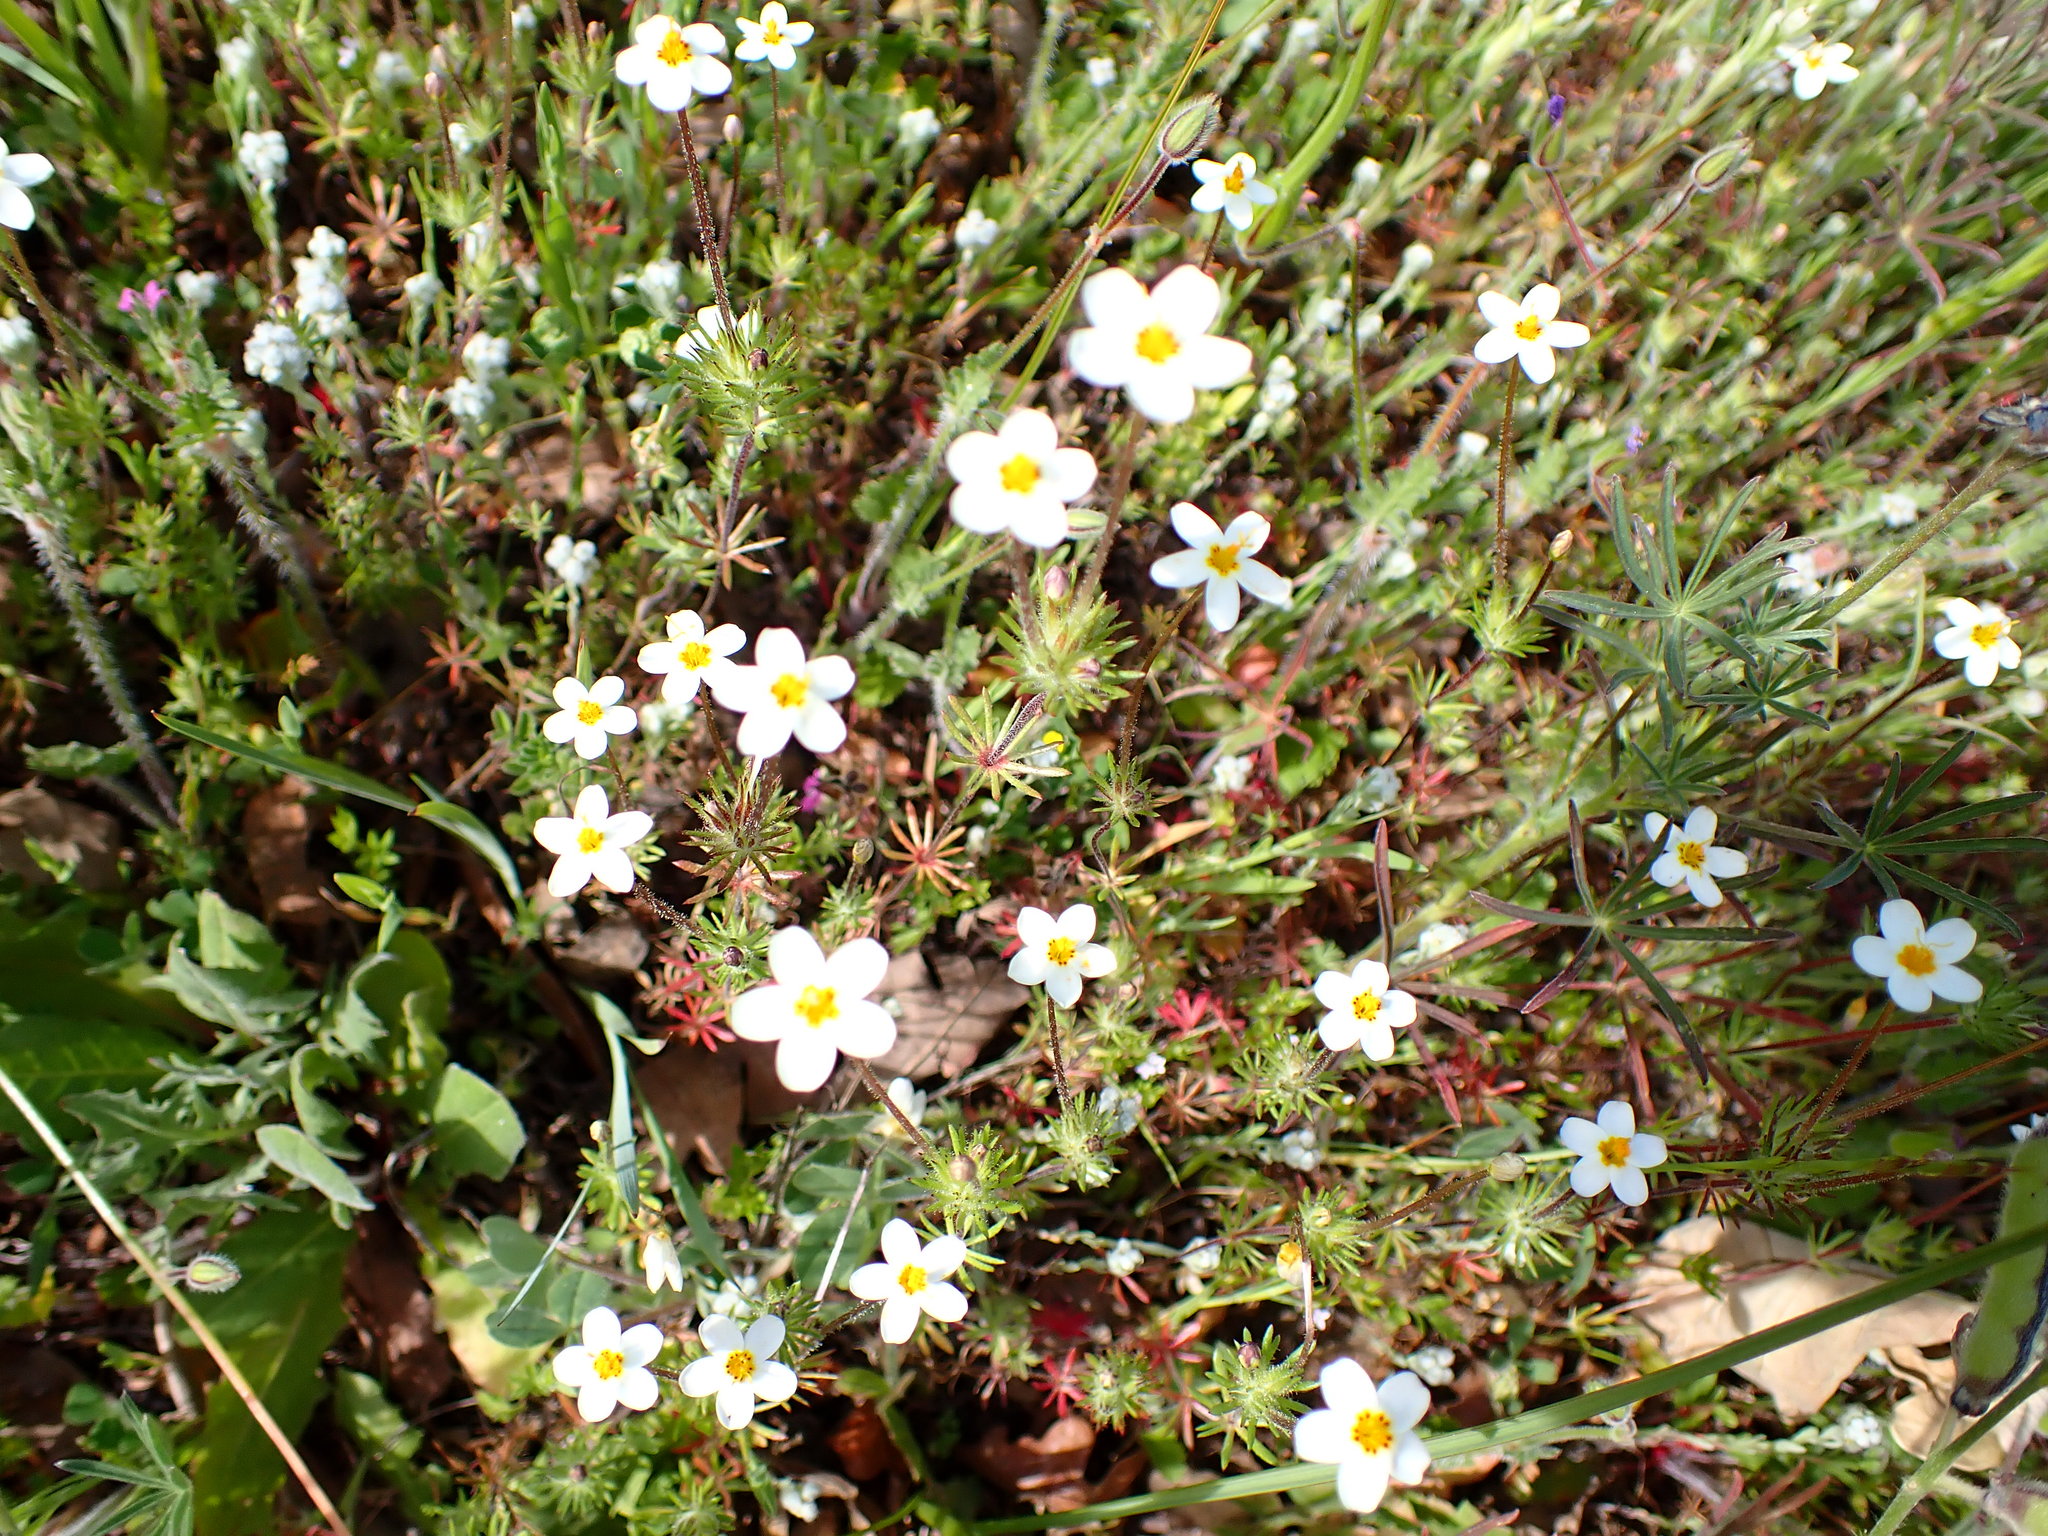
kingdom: Plantae
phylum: Tracheophyta
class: Magnoliopsida
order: Ericales
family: Polemoniaceae
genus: Leptosiphon
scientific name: Leptosiphon parviflorus
